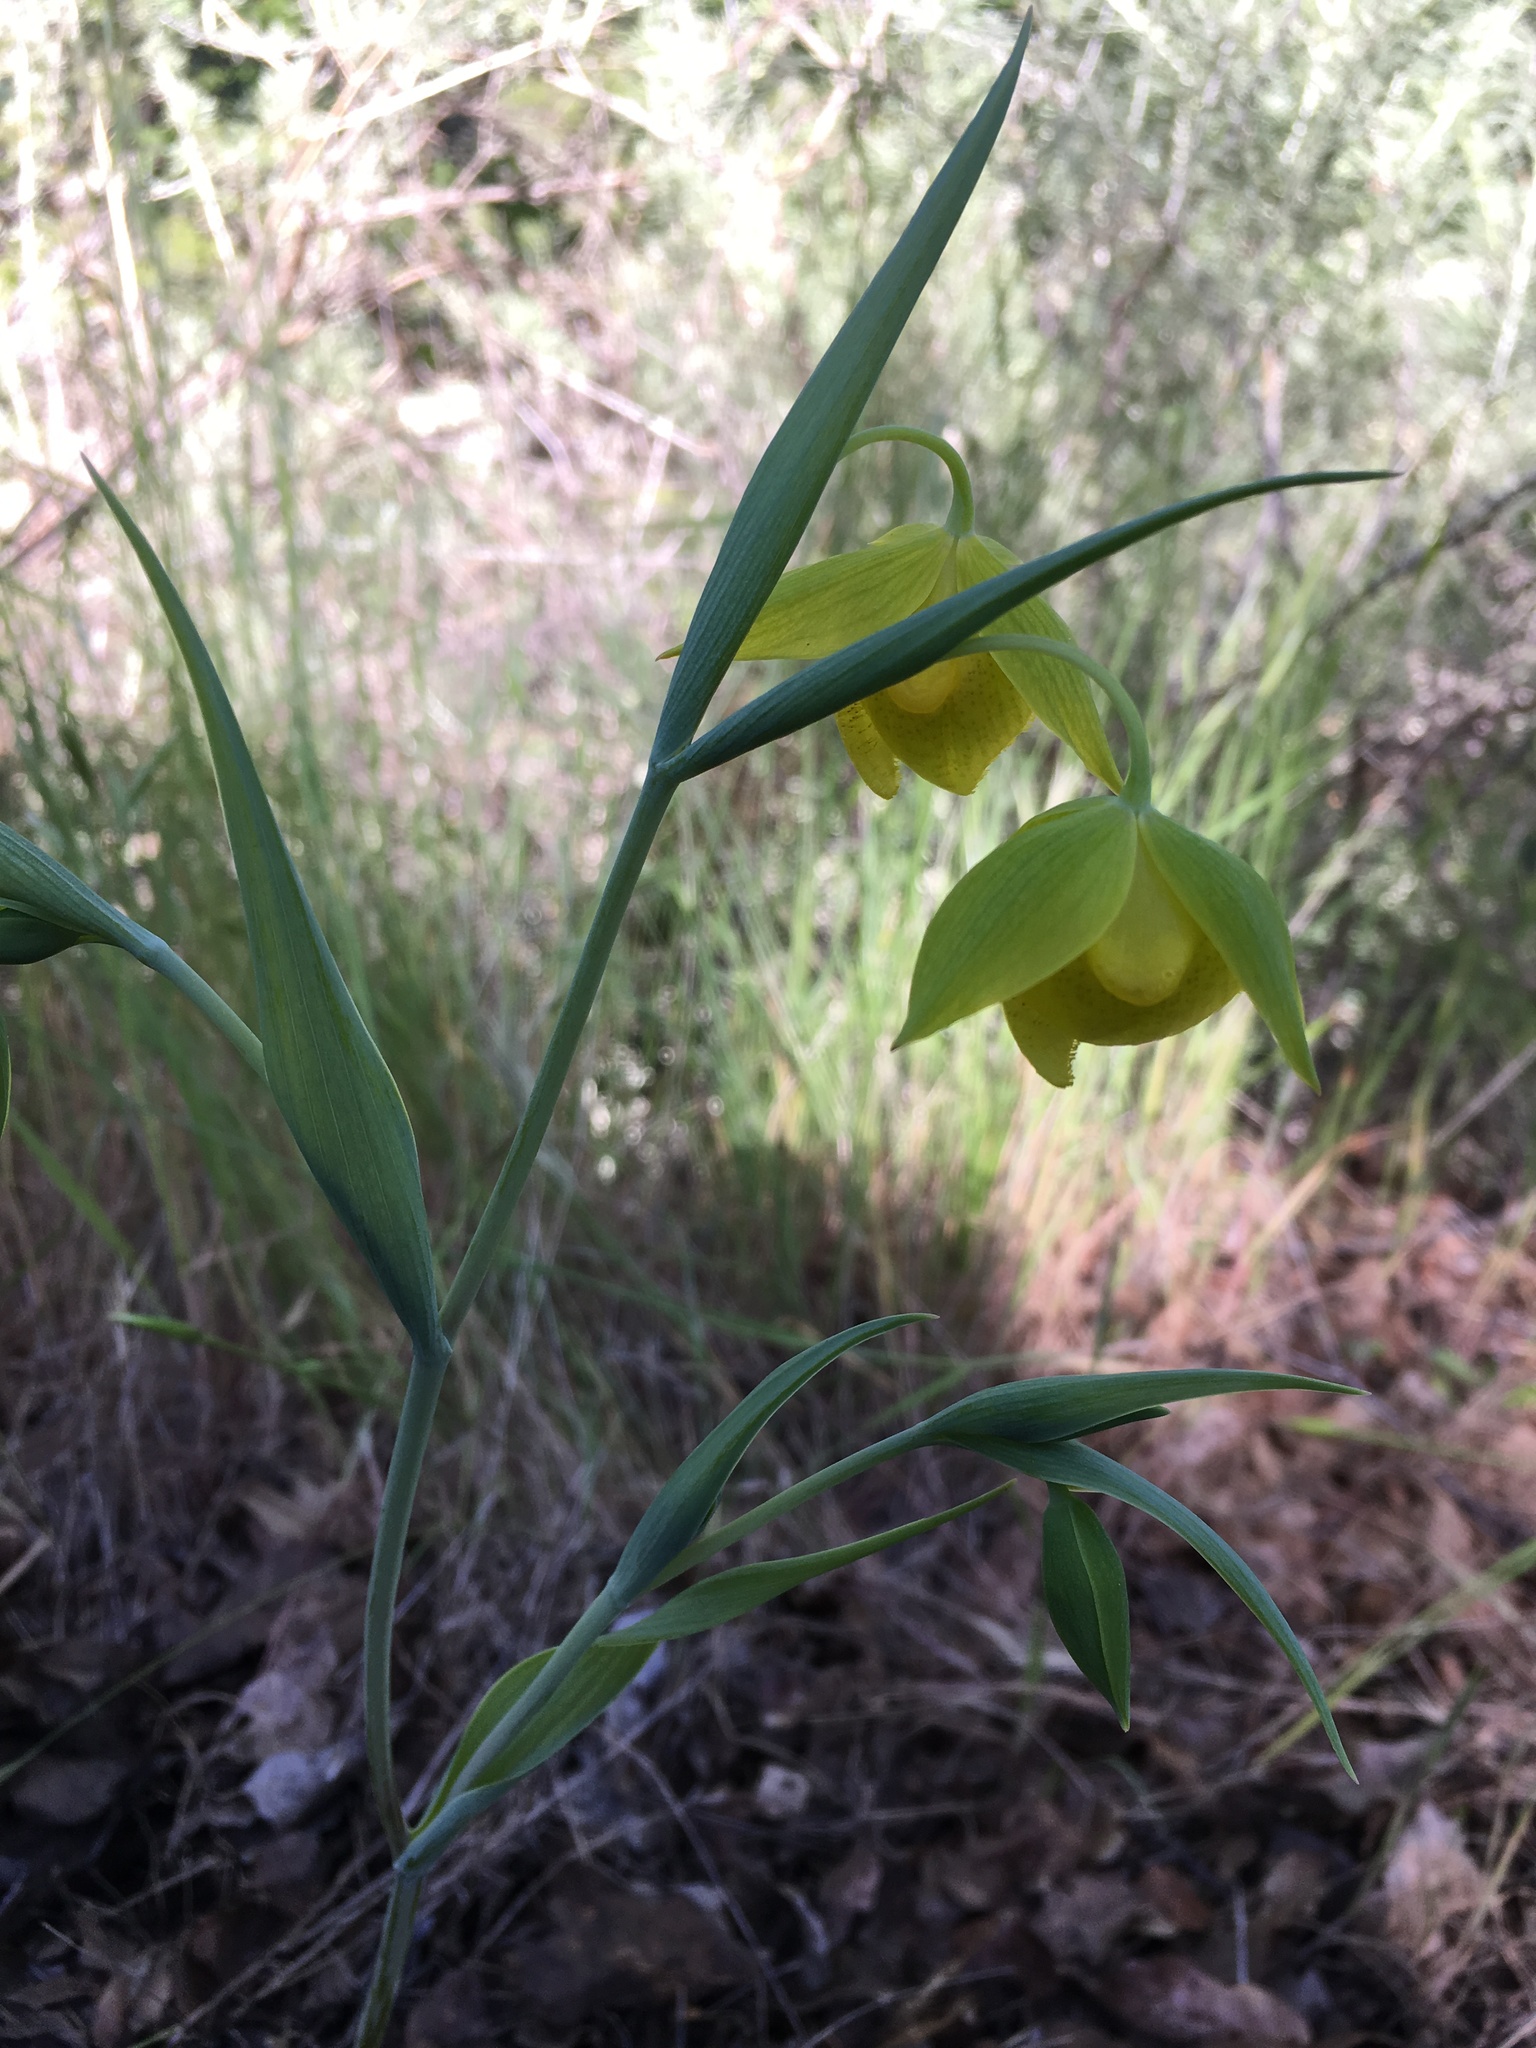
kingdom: Plantae
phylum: Tracheophyta
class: Liliopsida
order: Liliales
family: Liliaceae
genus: Calochortus
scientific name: Calochortus pulchellus
